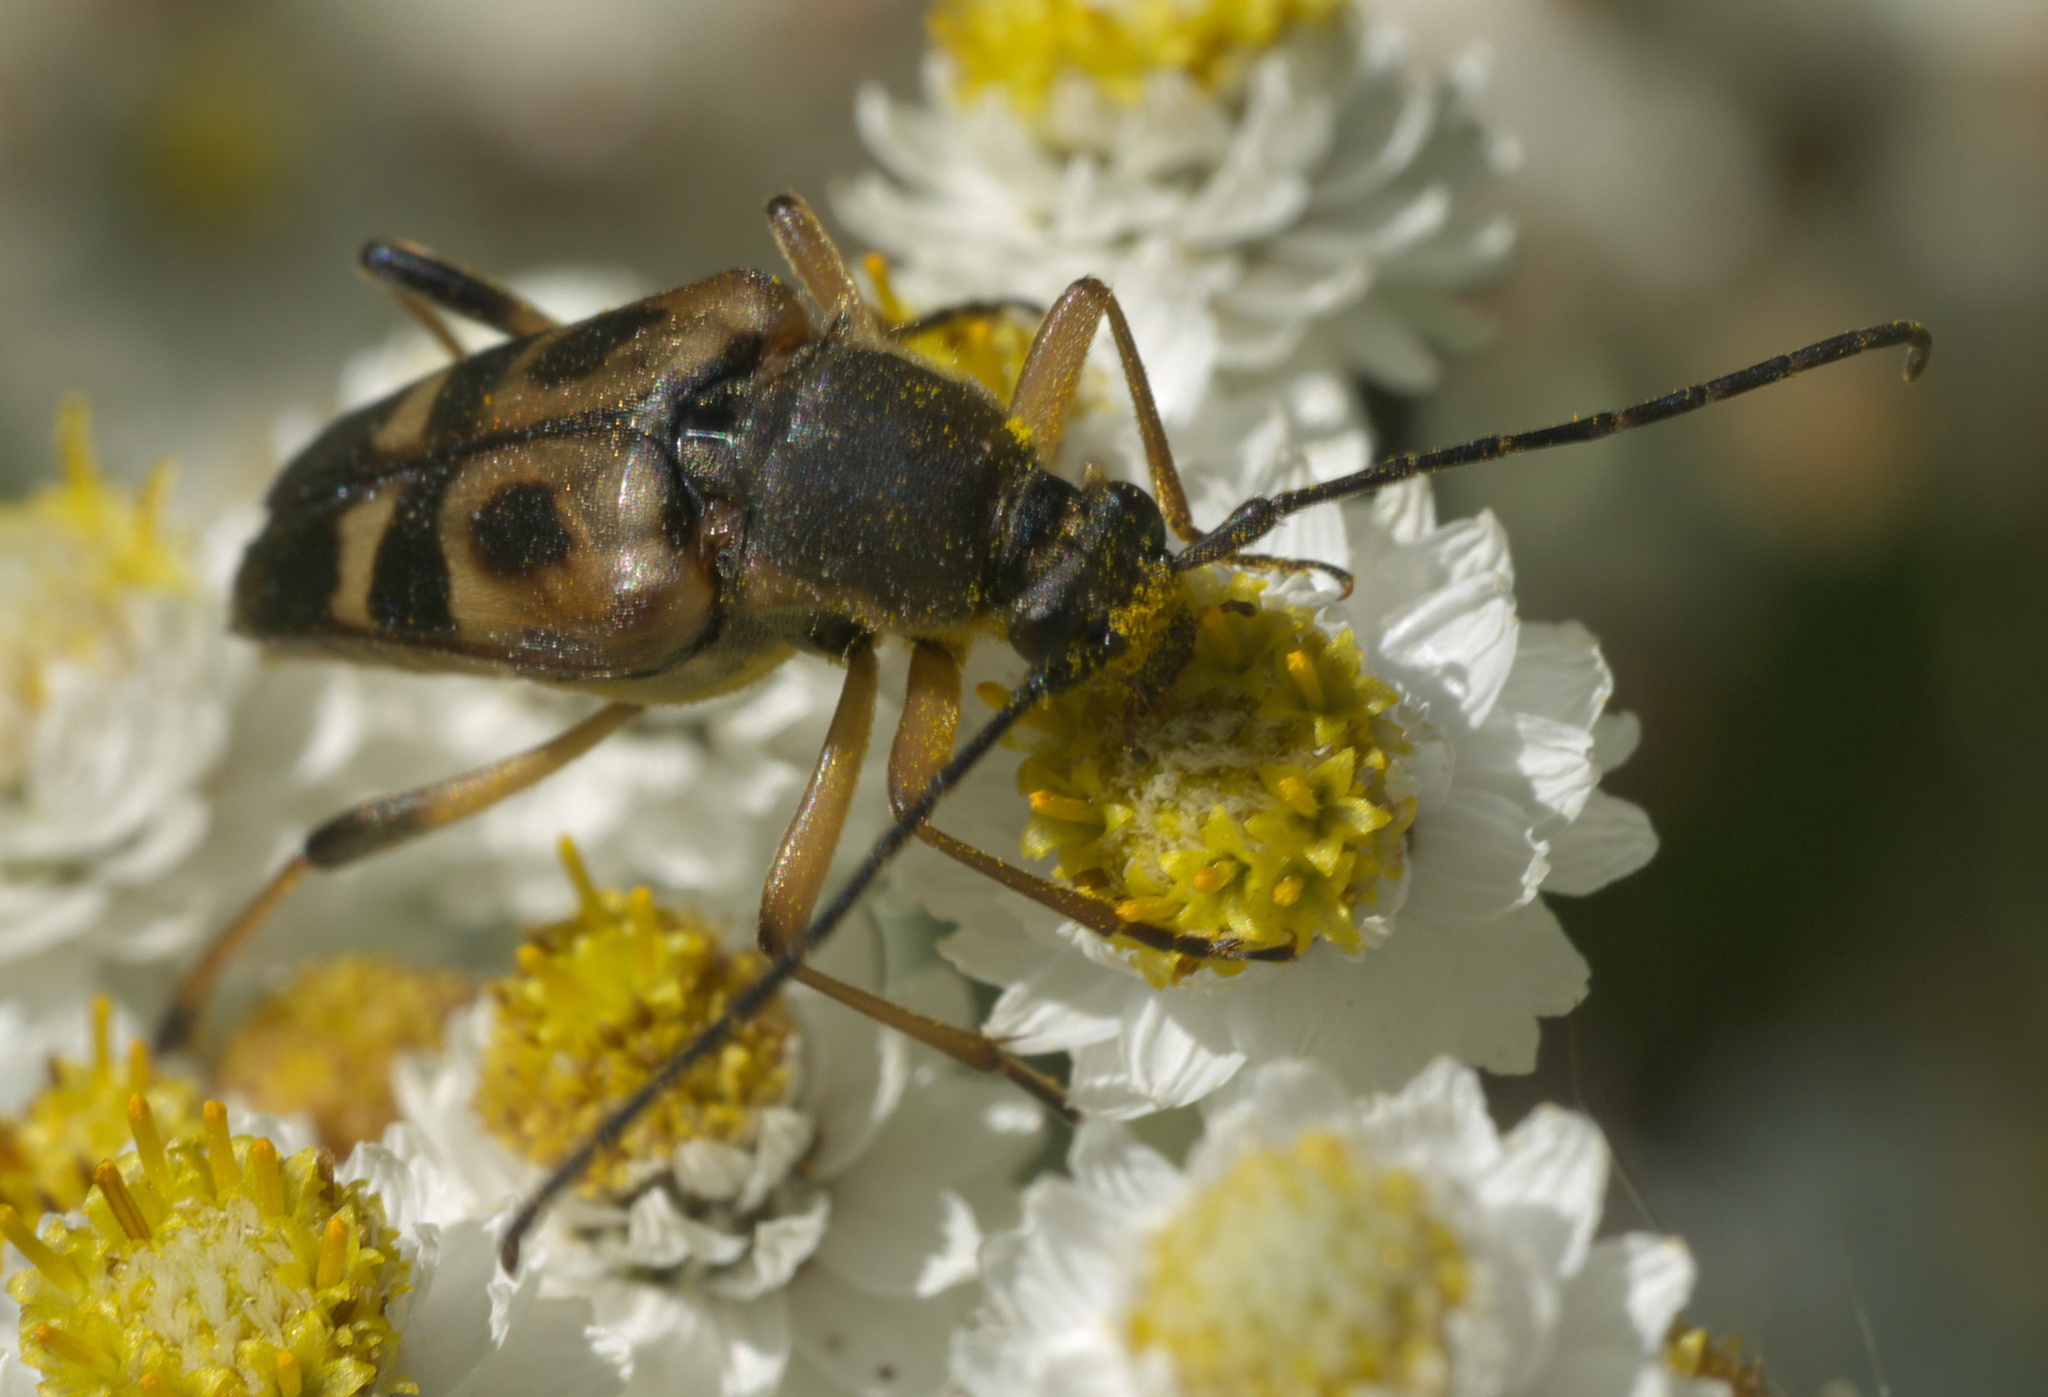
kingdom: Animalia
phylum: Arthropoda
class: Insecta
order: Coleoptera
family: Cerambycidae
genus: Etorofus
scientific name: Etorofus obliteratus
